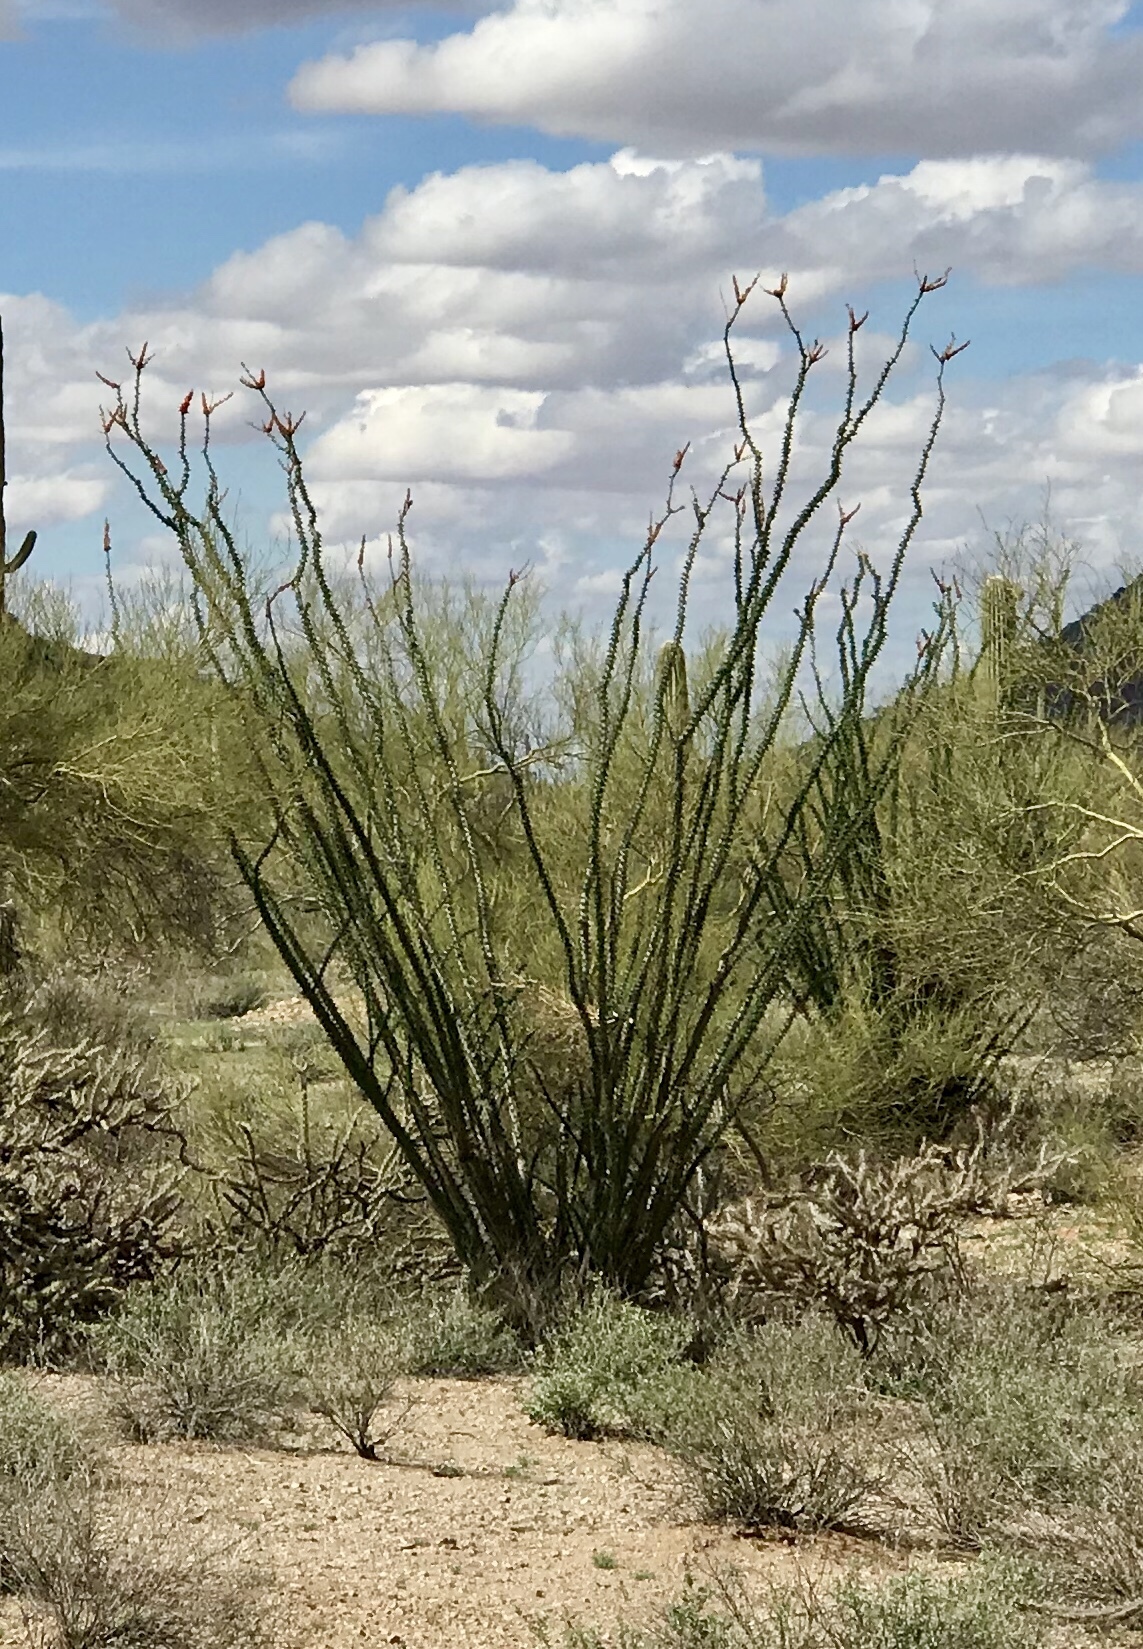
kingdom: Plantae
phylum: Tracheophyta
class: Magnoliopsida
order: Ericales
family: Fouquieriaceae
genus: Fouquieria
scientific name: Fouquieria splendens
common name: Vine-cactus
